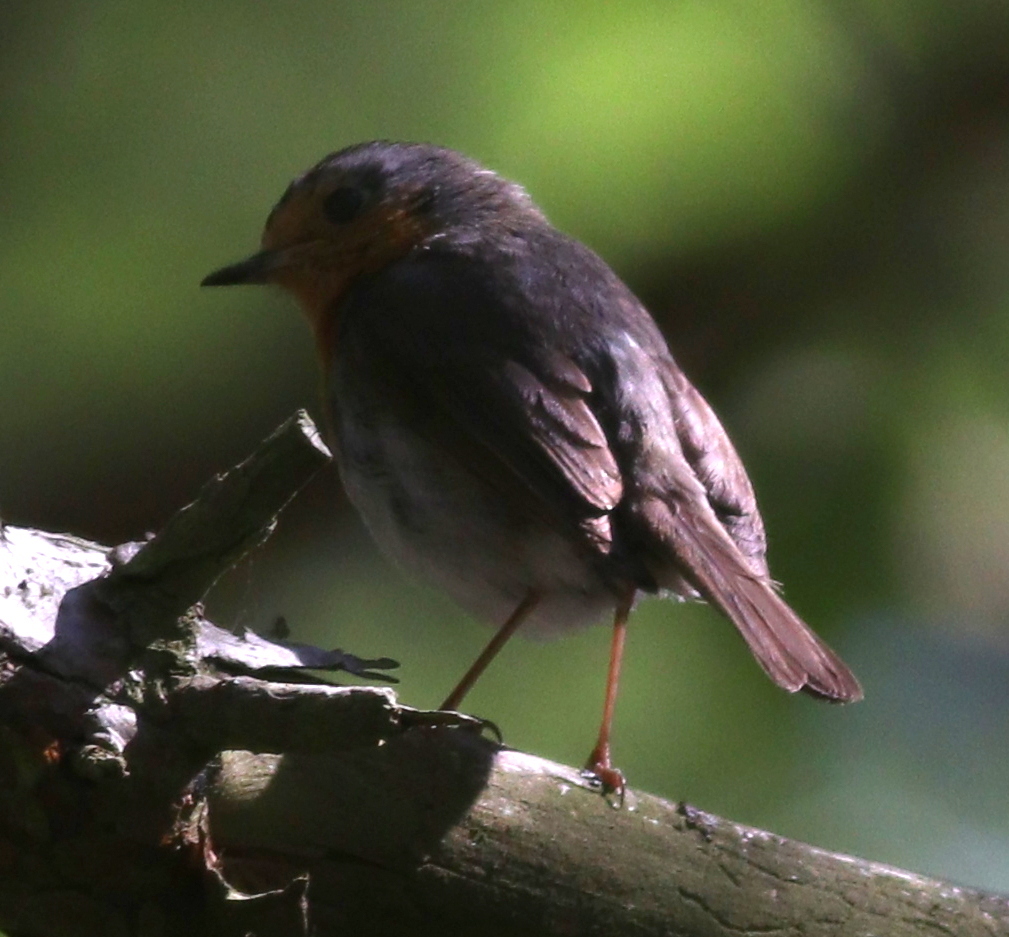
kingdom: Animalia
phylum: Chordata
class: Aves
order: Passeriformes
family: Muscicapidae
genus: Erithacus
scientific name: Erithacus rubecula
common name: European robin
